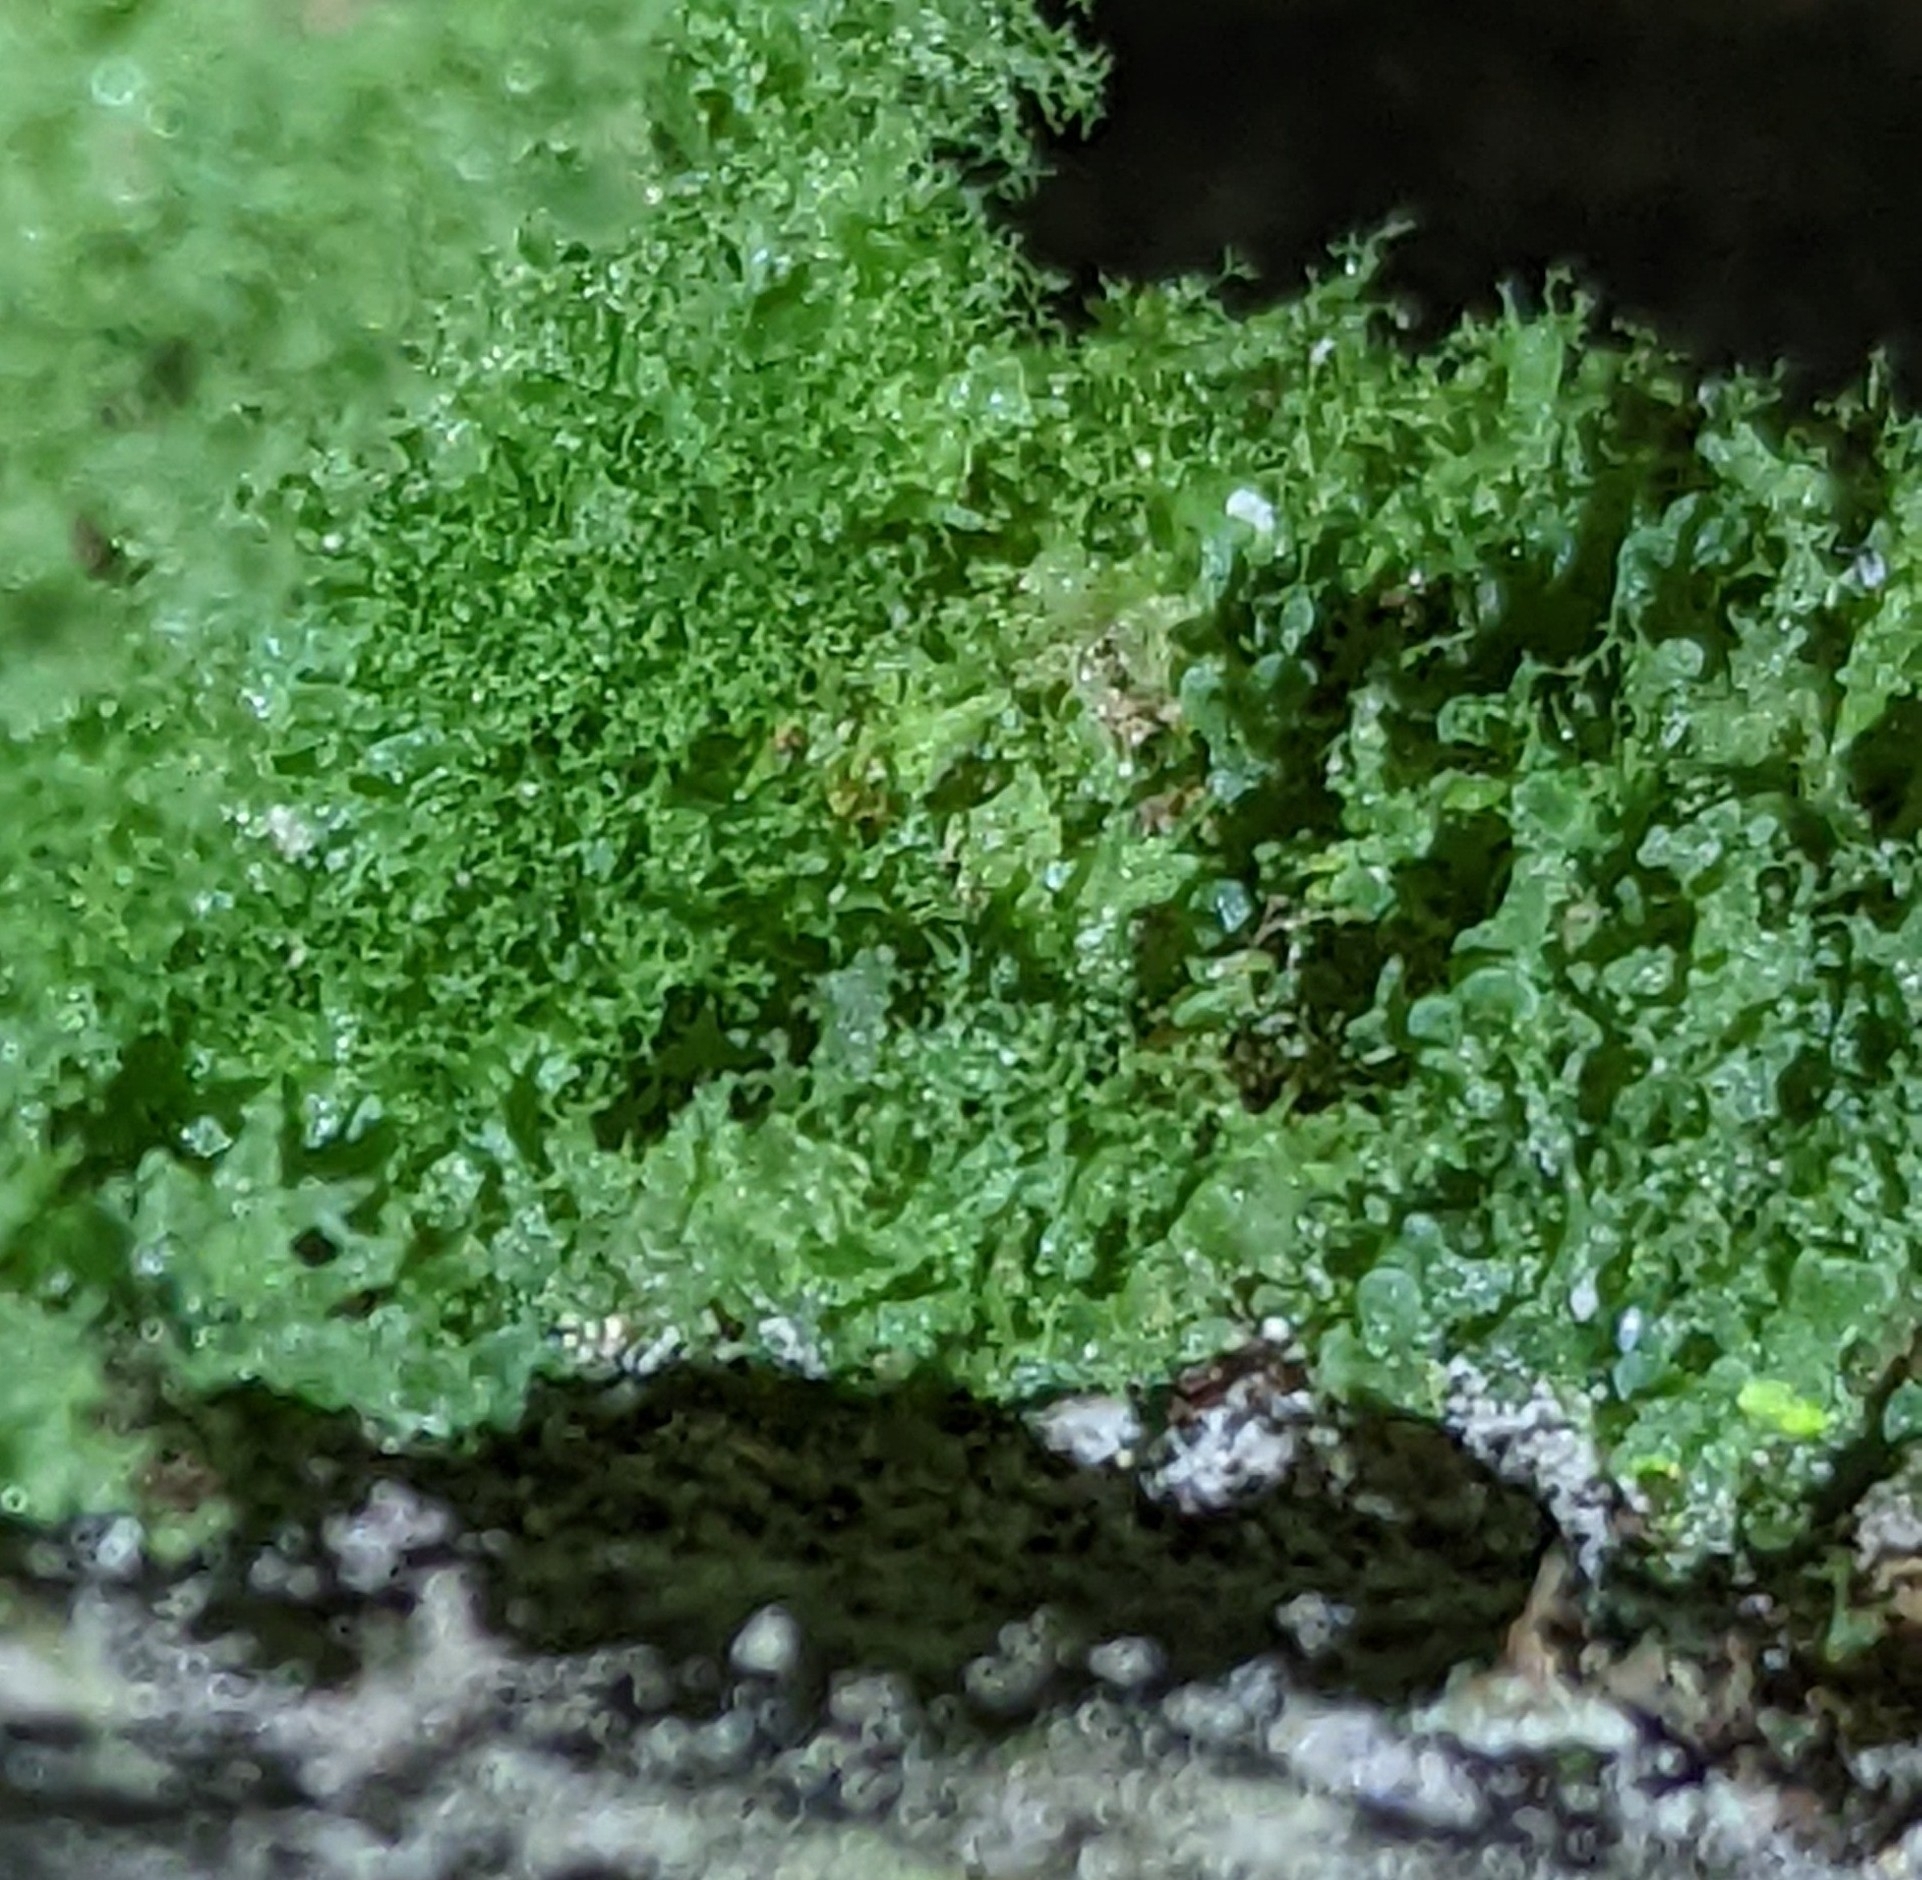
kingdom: Plantae
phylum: Tracheophyta
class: Polypodiopsida
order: Polypodiales
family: Pteridaceae
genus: Vittaria
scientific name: Vittaria appalachiana
